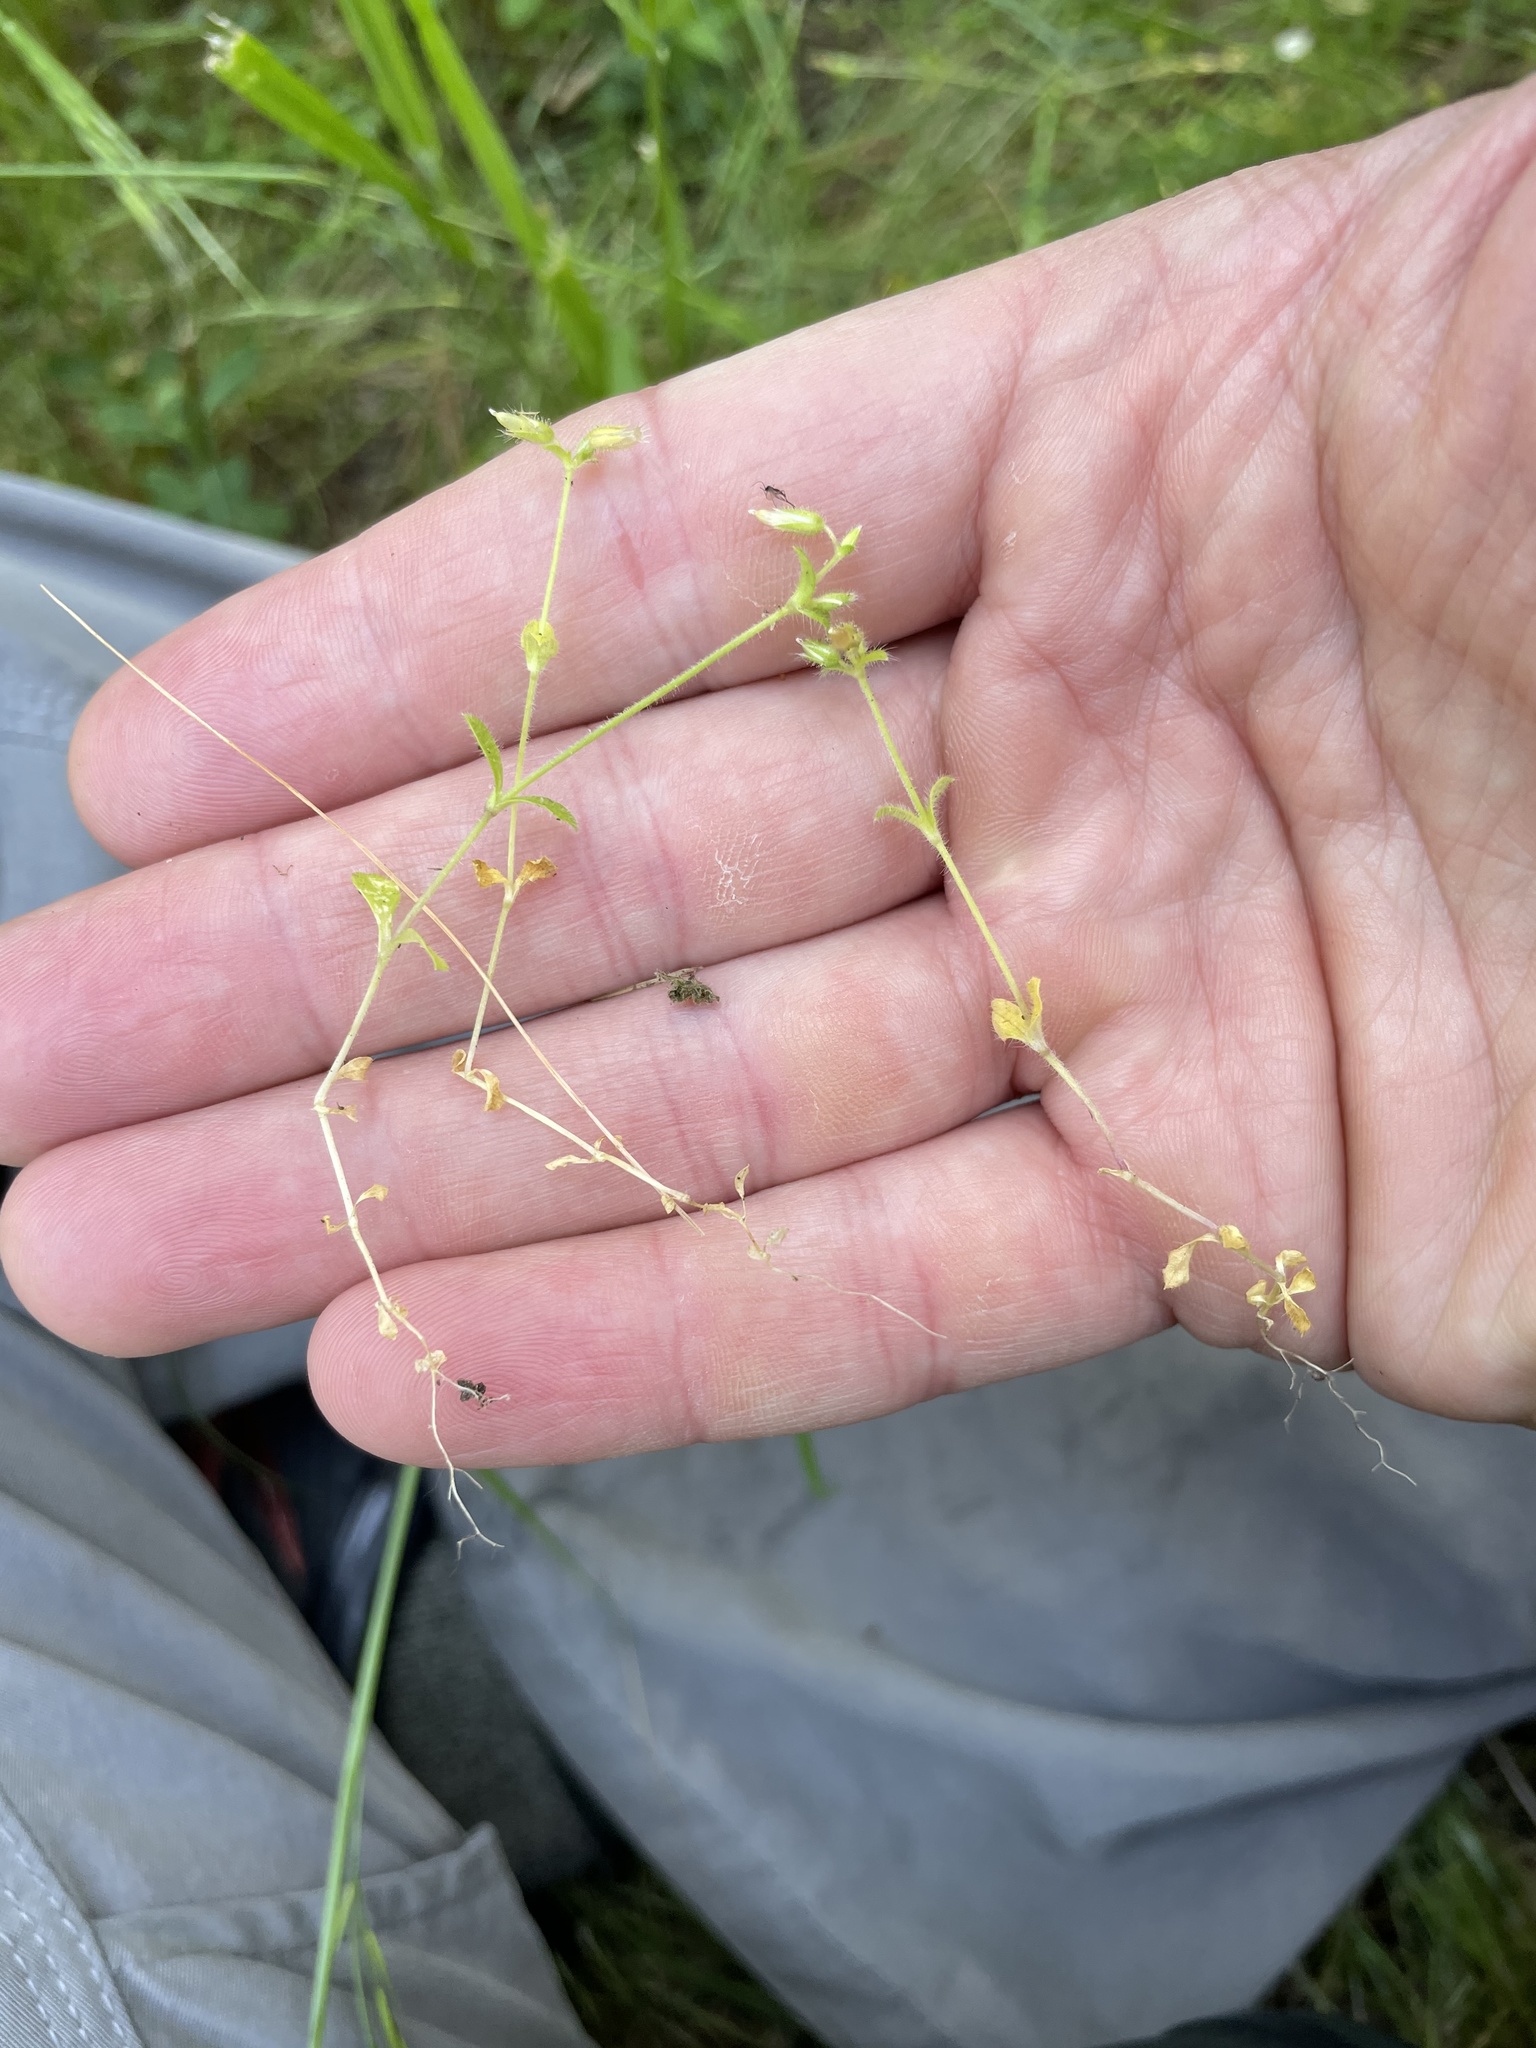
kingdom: Plantae
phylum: Tracheophyta
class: Magnoliopsida
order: Caryophyllales
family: Caryophyllaceae
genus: Cerastium
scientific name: Cerastium glomeratum
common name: Sticky chickweed
